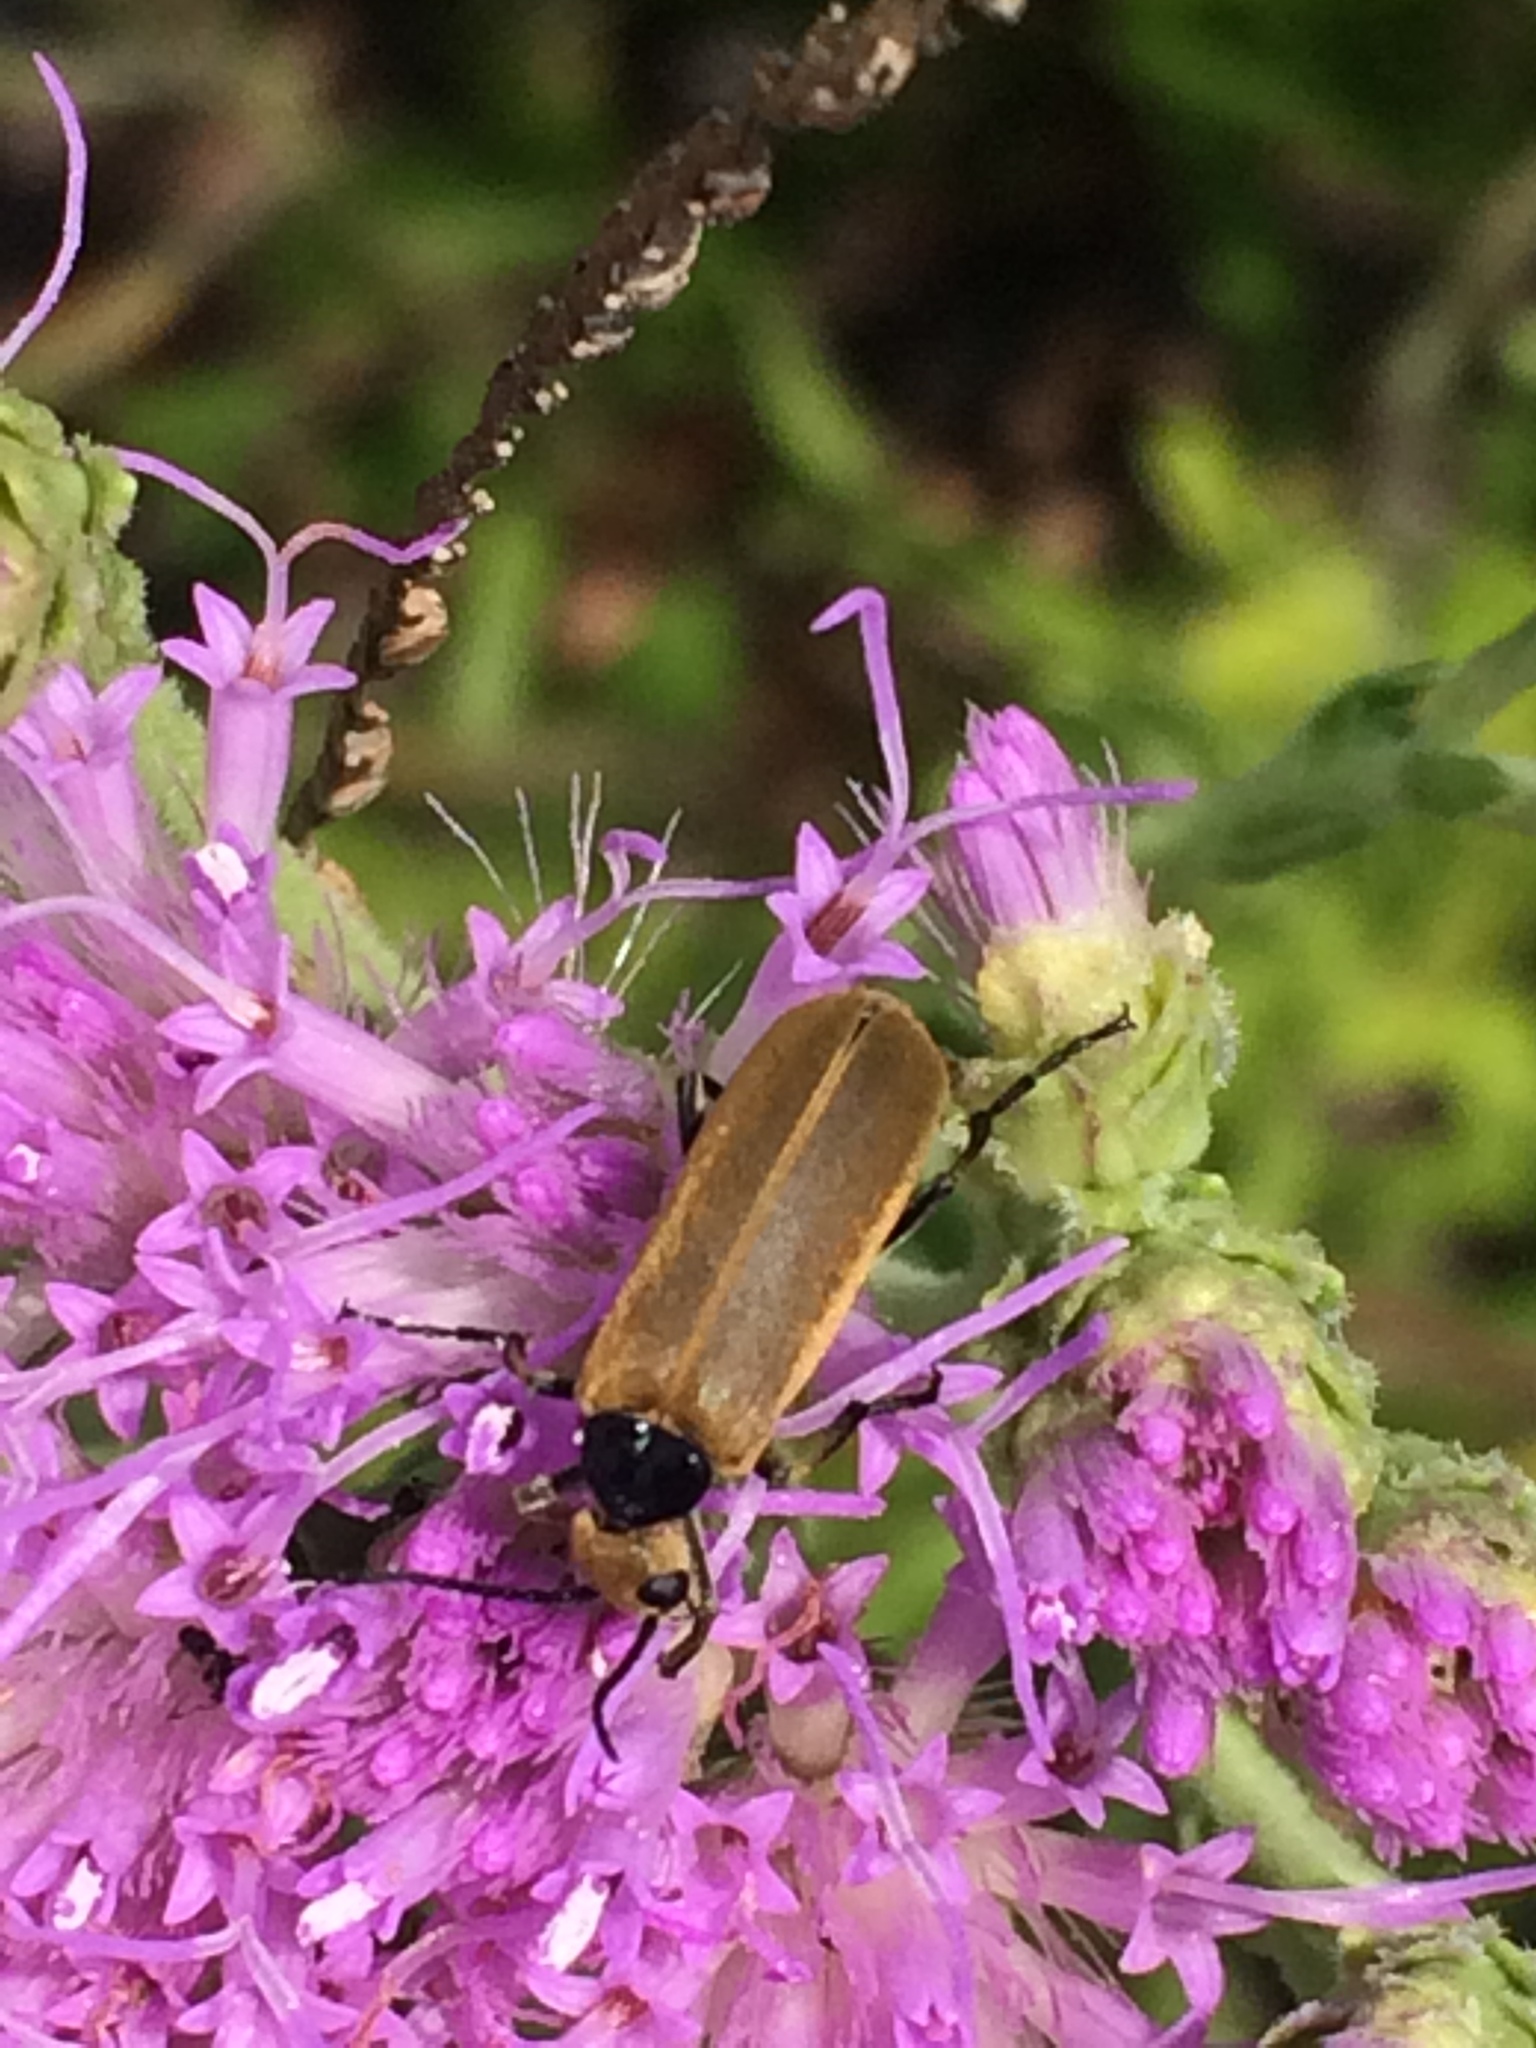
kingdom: Animalia
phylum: Arthropoda
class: Insecta
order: Coleoptera
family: Meloidae
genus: Epicauta
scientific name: Epicauta heterodera
